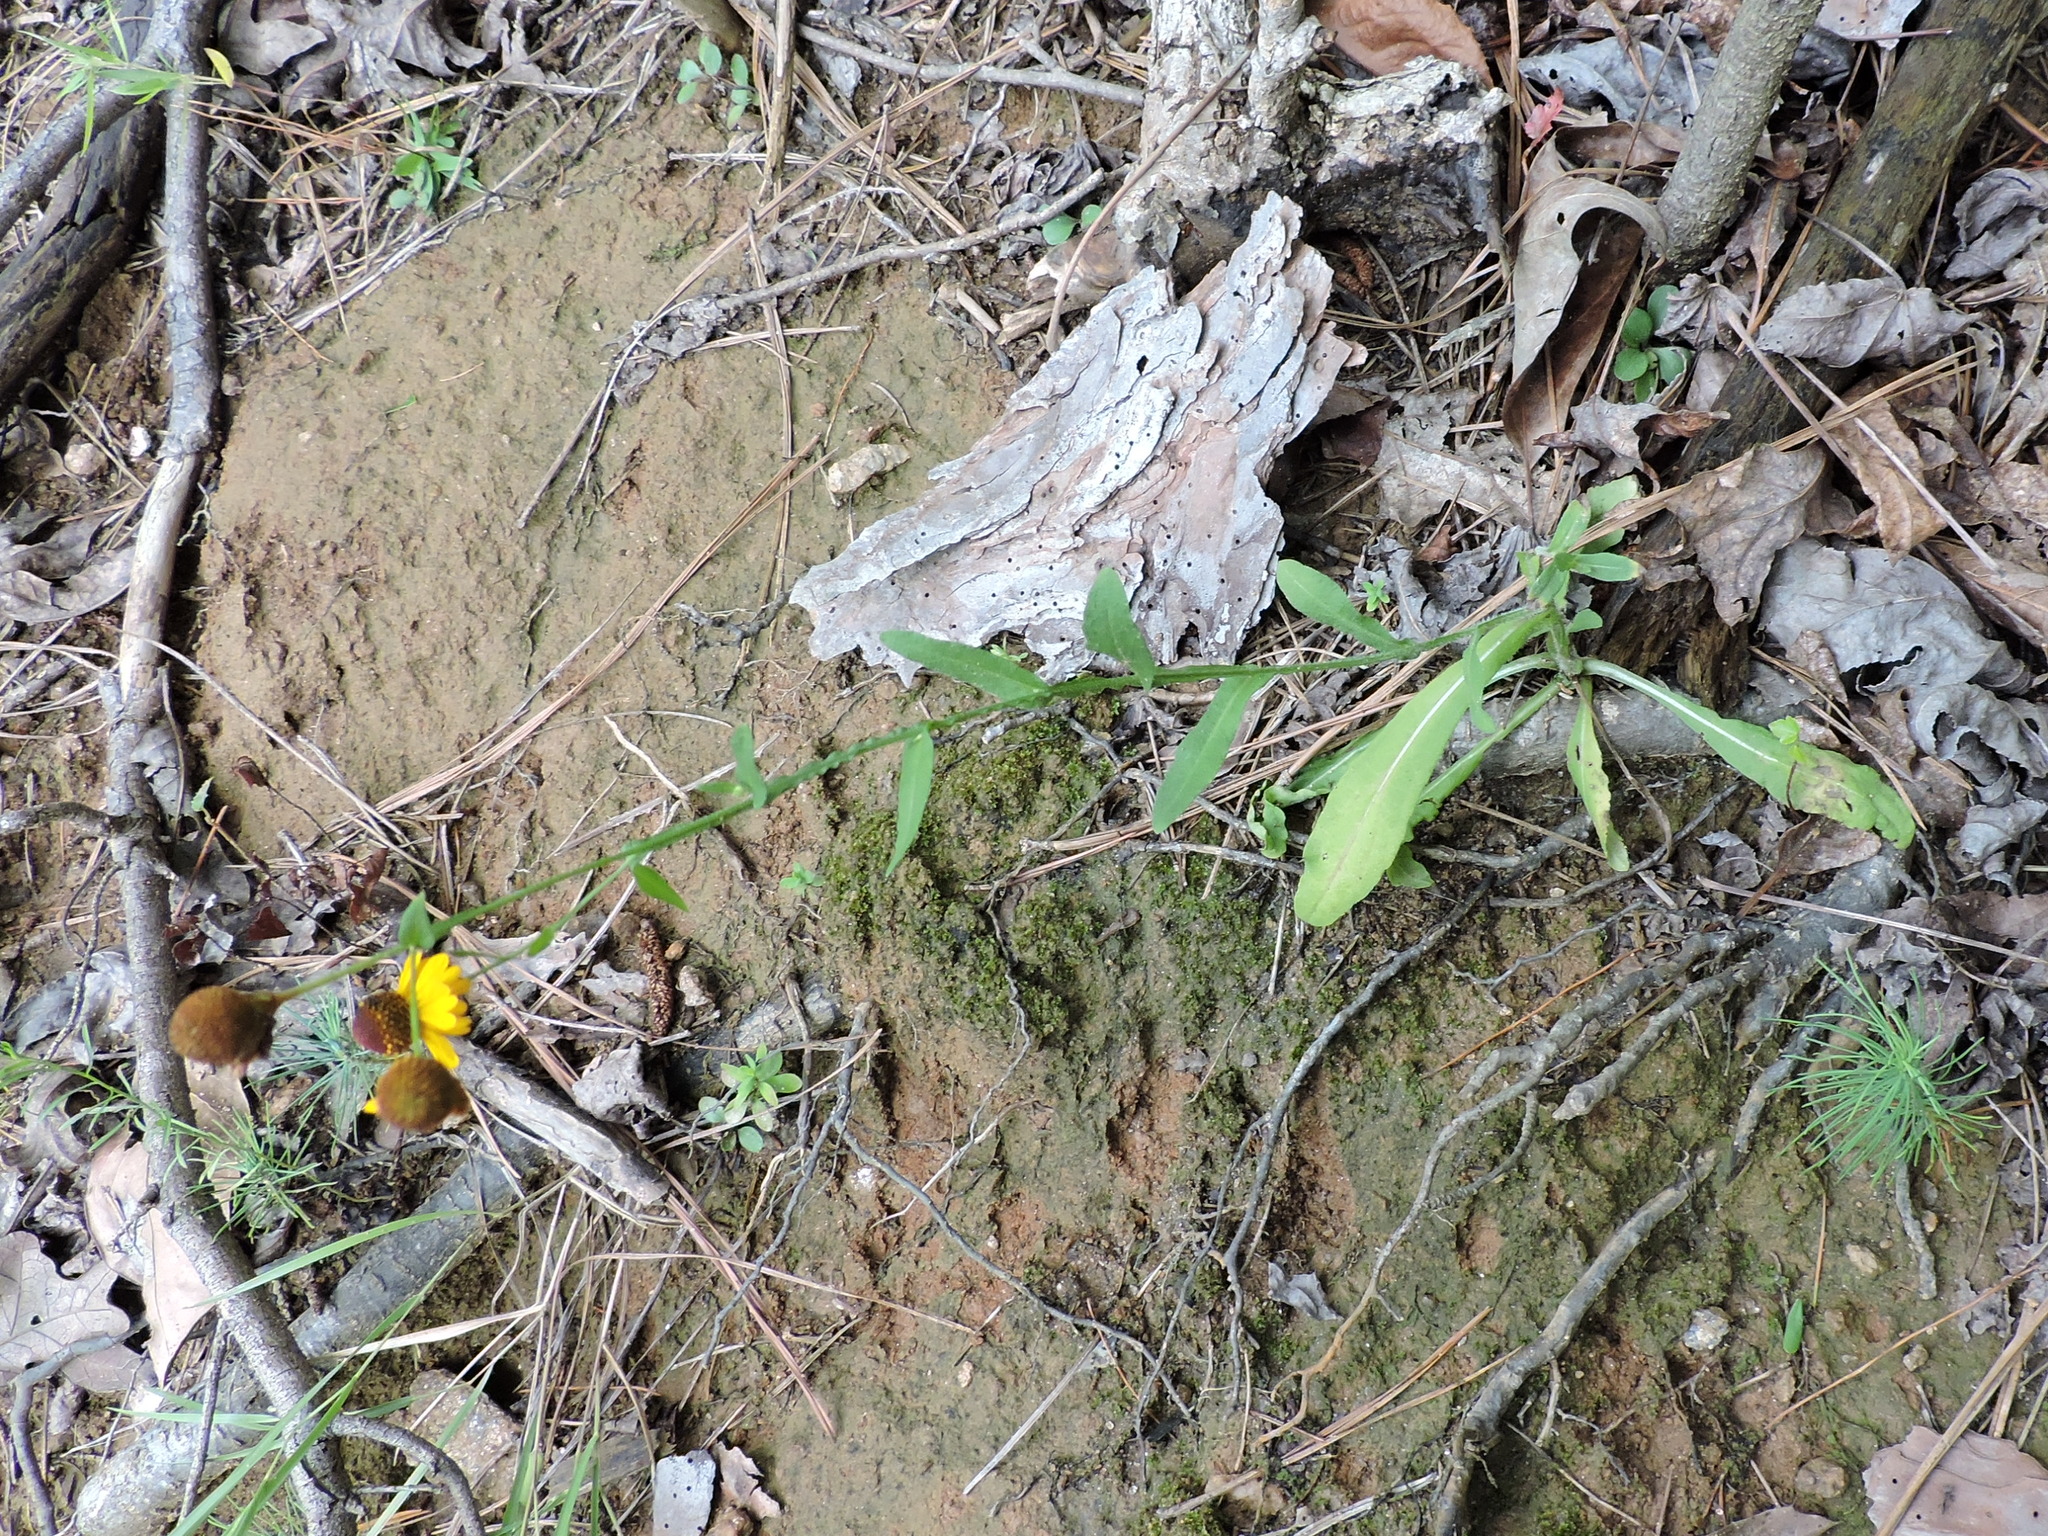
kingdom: Plantae
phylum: Tracheophyta
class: Magnoliopsida
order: Asterales
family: Asteraceae
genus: Helenium
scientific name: Helenium elegans
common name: Pretty sneezeweed
